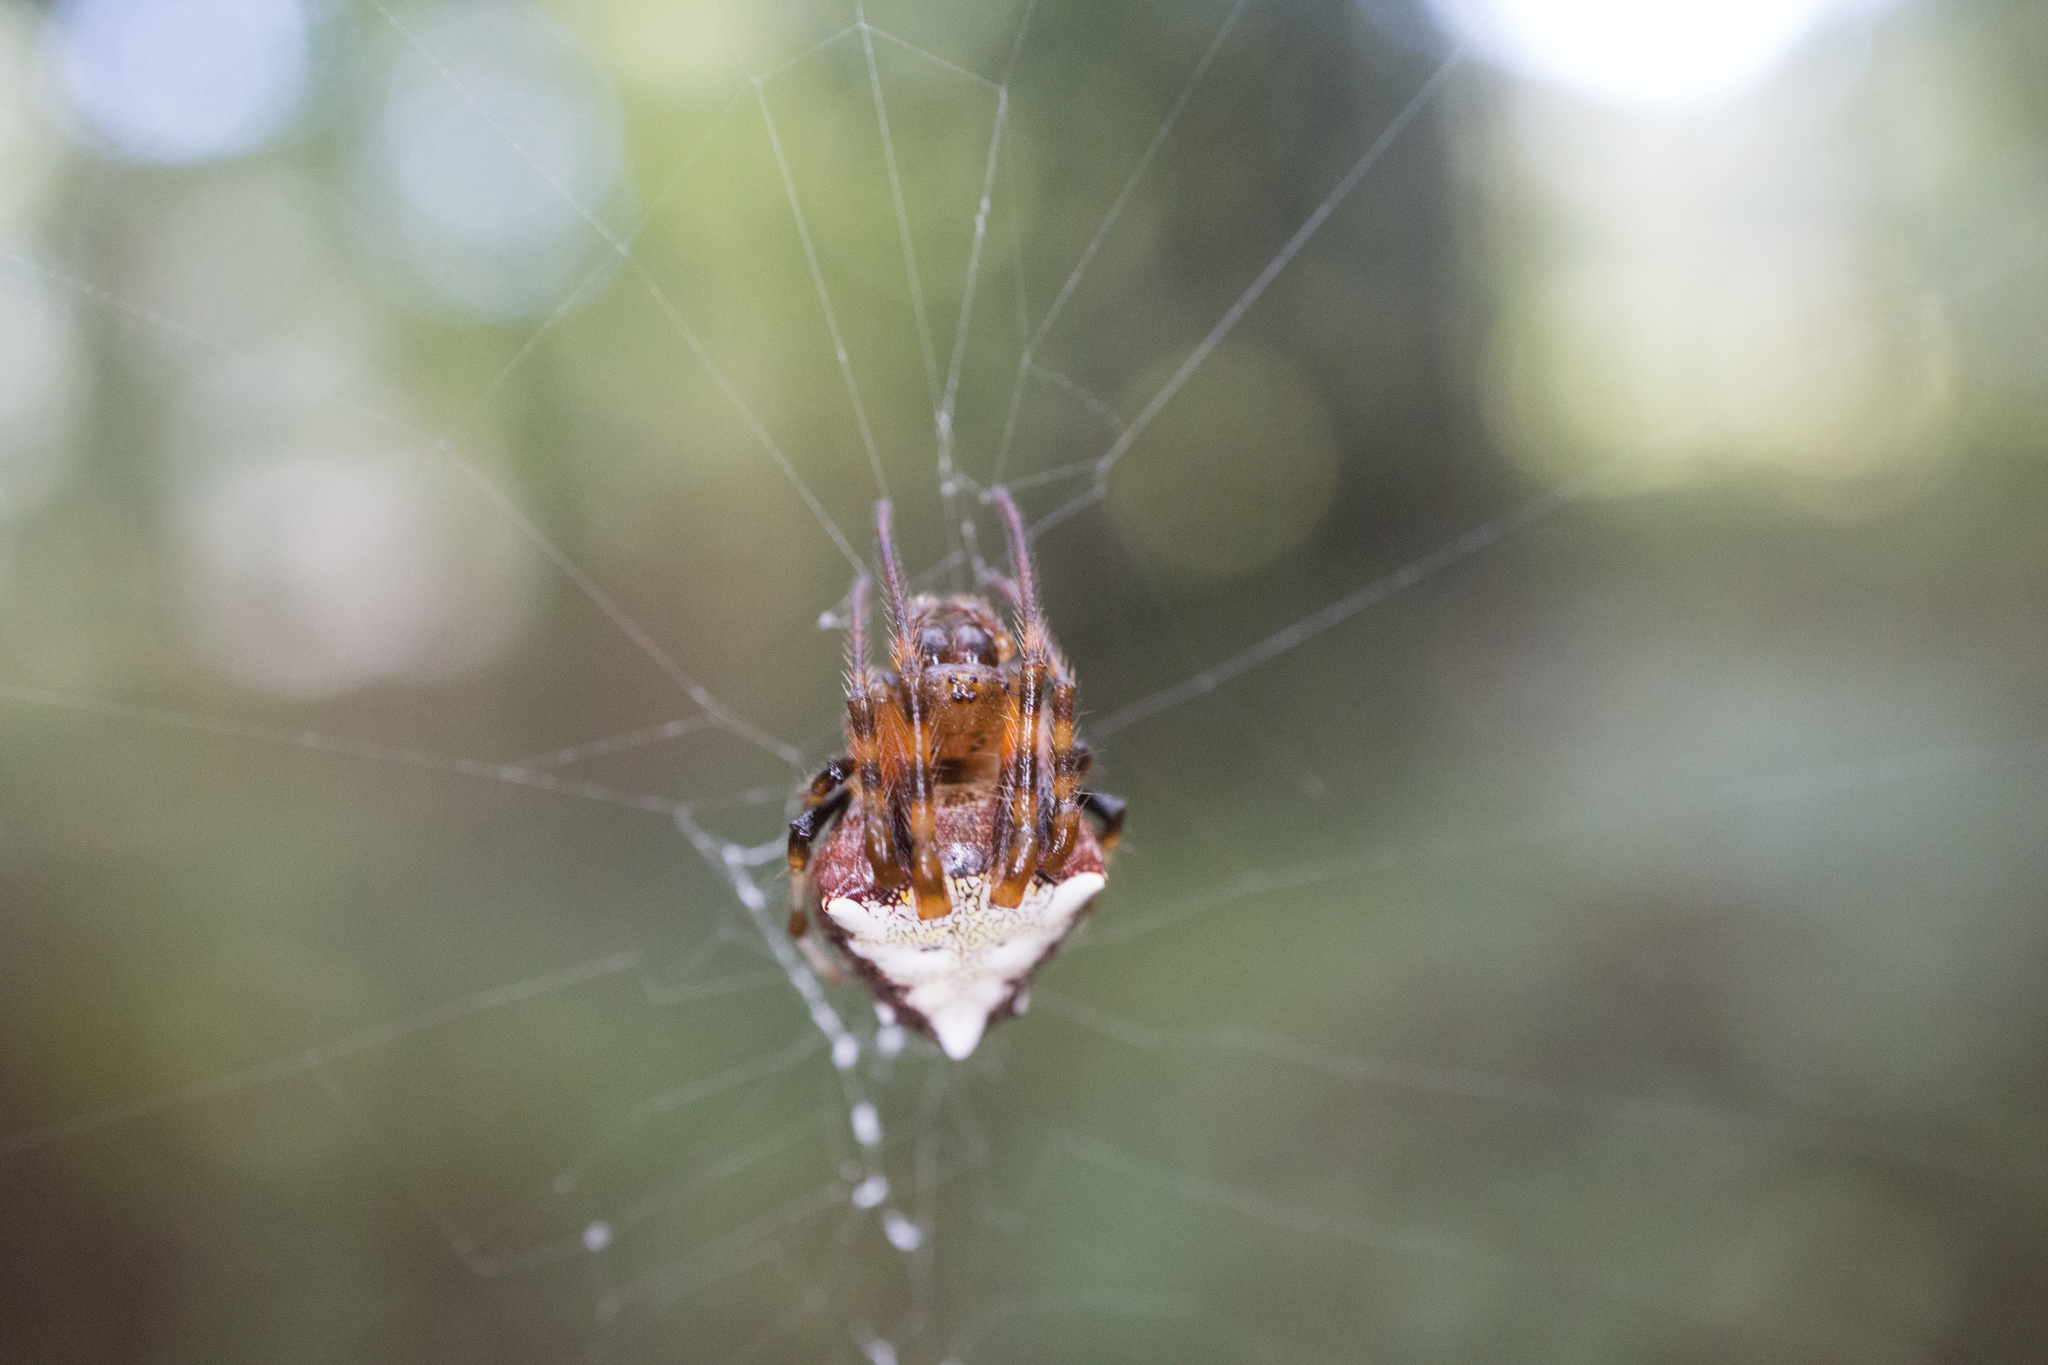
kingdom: Animalia
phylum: Arthropoda
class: Arachnida
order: Araneae
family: Araneidae
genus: Verrucosa
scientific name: Verrucosa arenata
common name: Orb weavers
